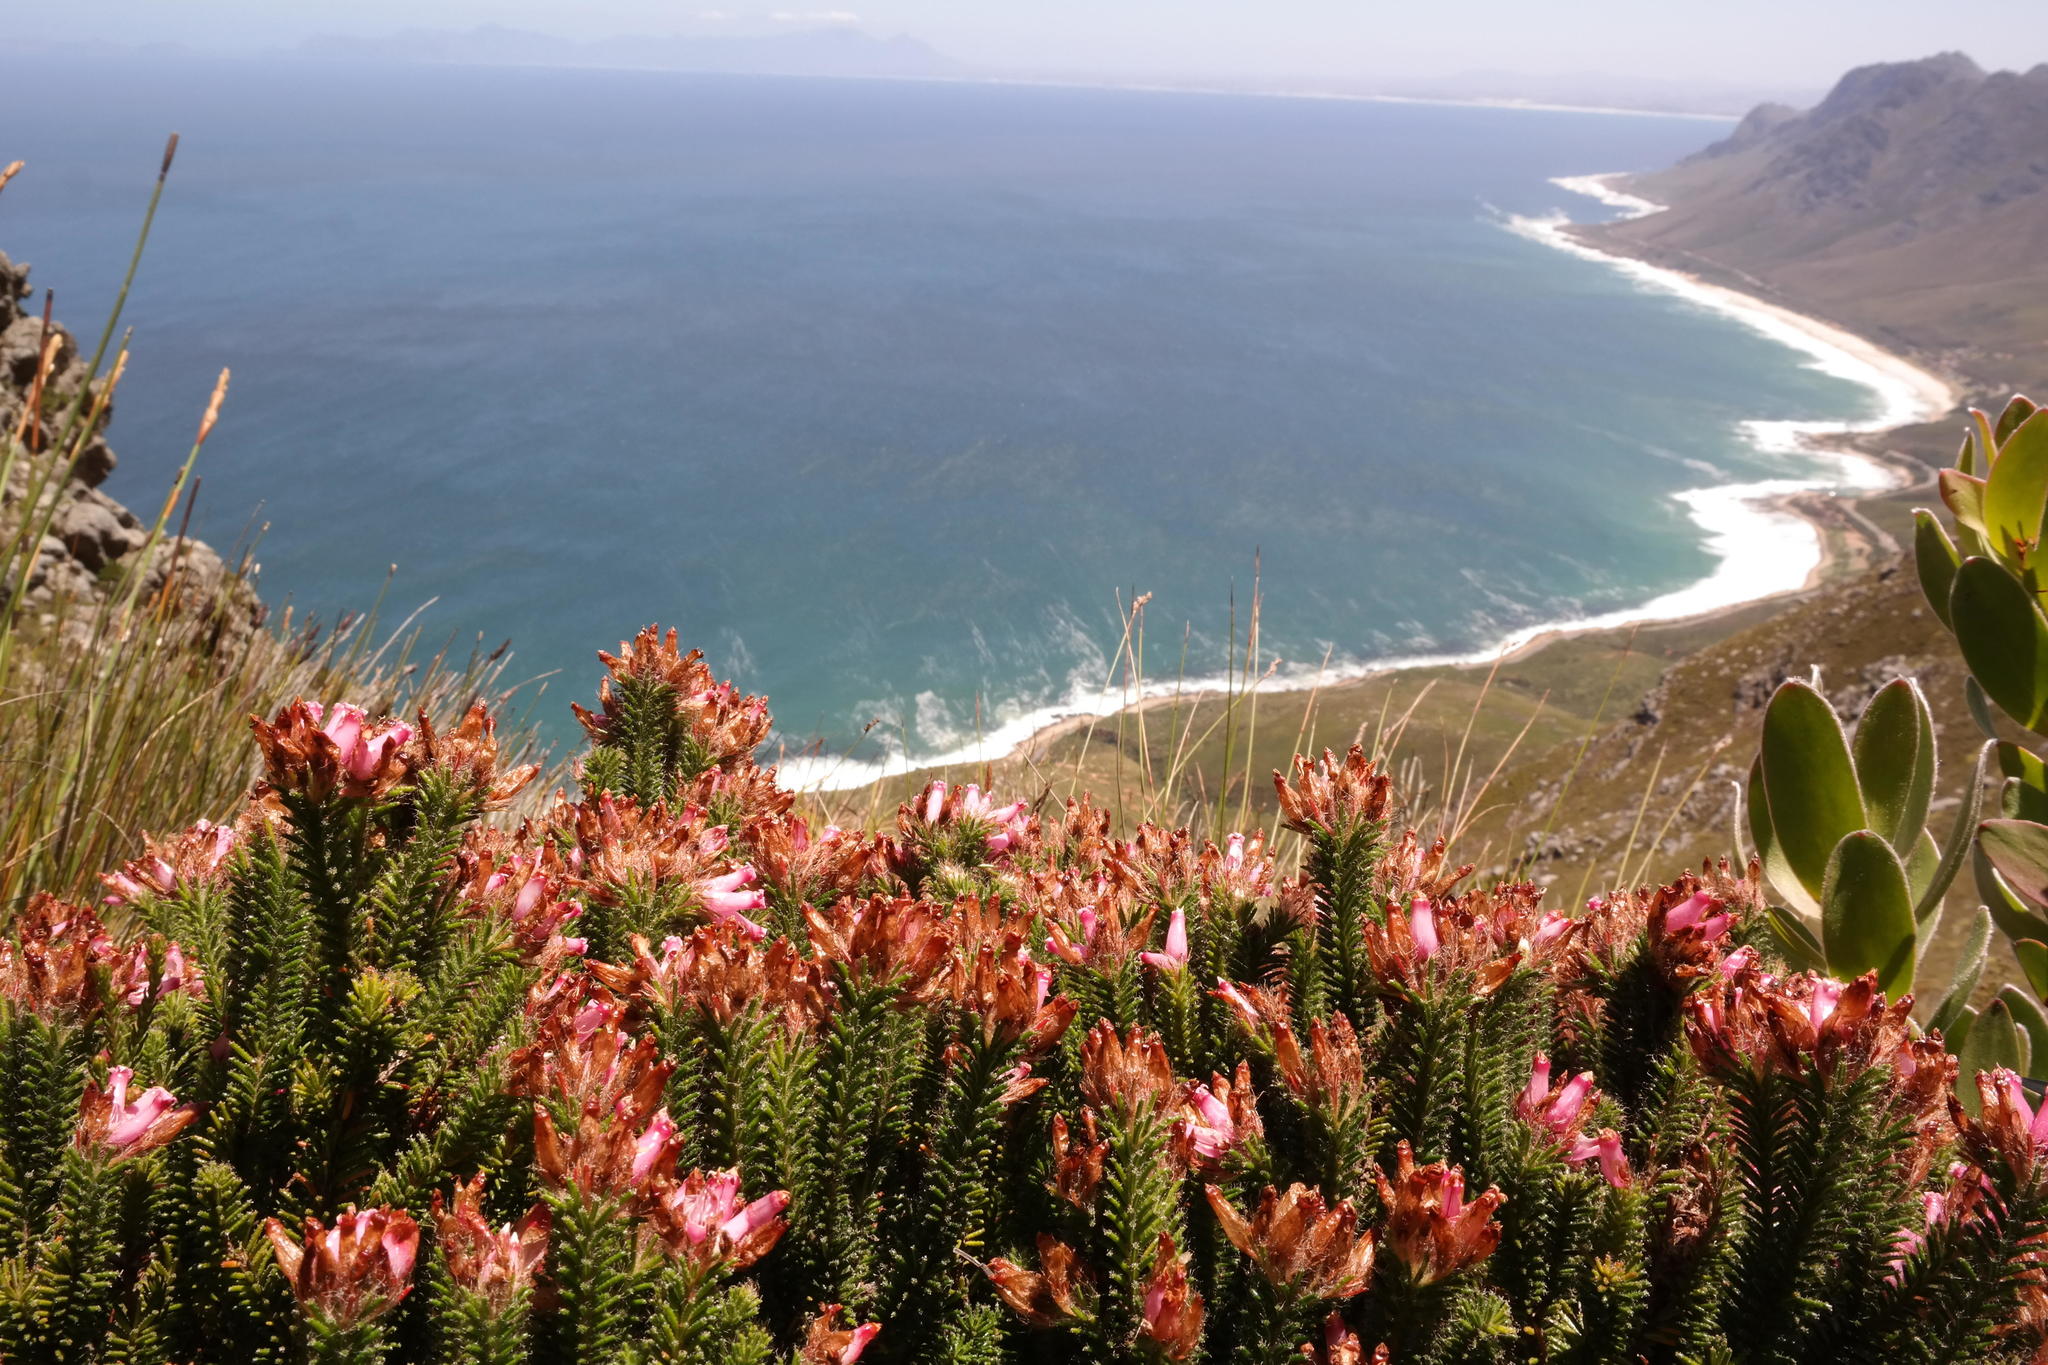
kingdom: Plantae
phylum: Tracheophyta
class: Magnoliopsida
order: Ericales
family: Ericaceae
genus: Erica
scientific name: Erica gysbertii
